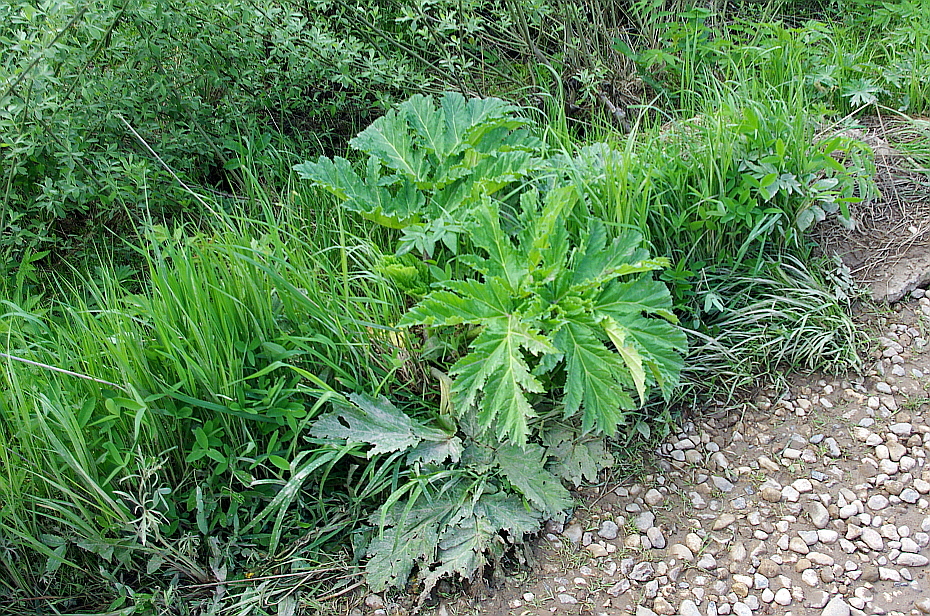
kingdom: Plantae
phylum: Tracheophyta
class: Magnoliopsida
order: Apiales
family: Apiaceae
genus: Heracleum
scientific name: Heracleum sosnowskyi
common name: Sosnowsky's hogweed
